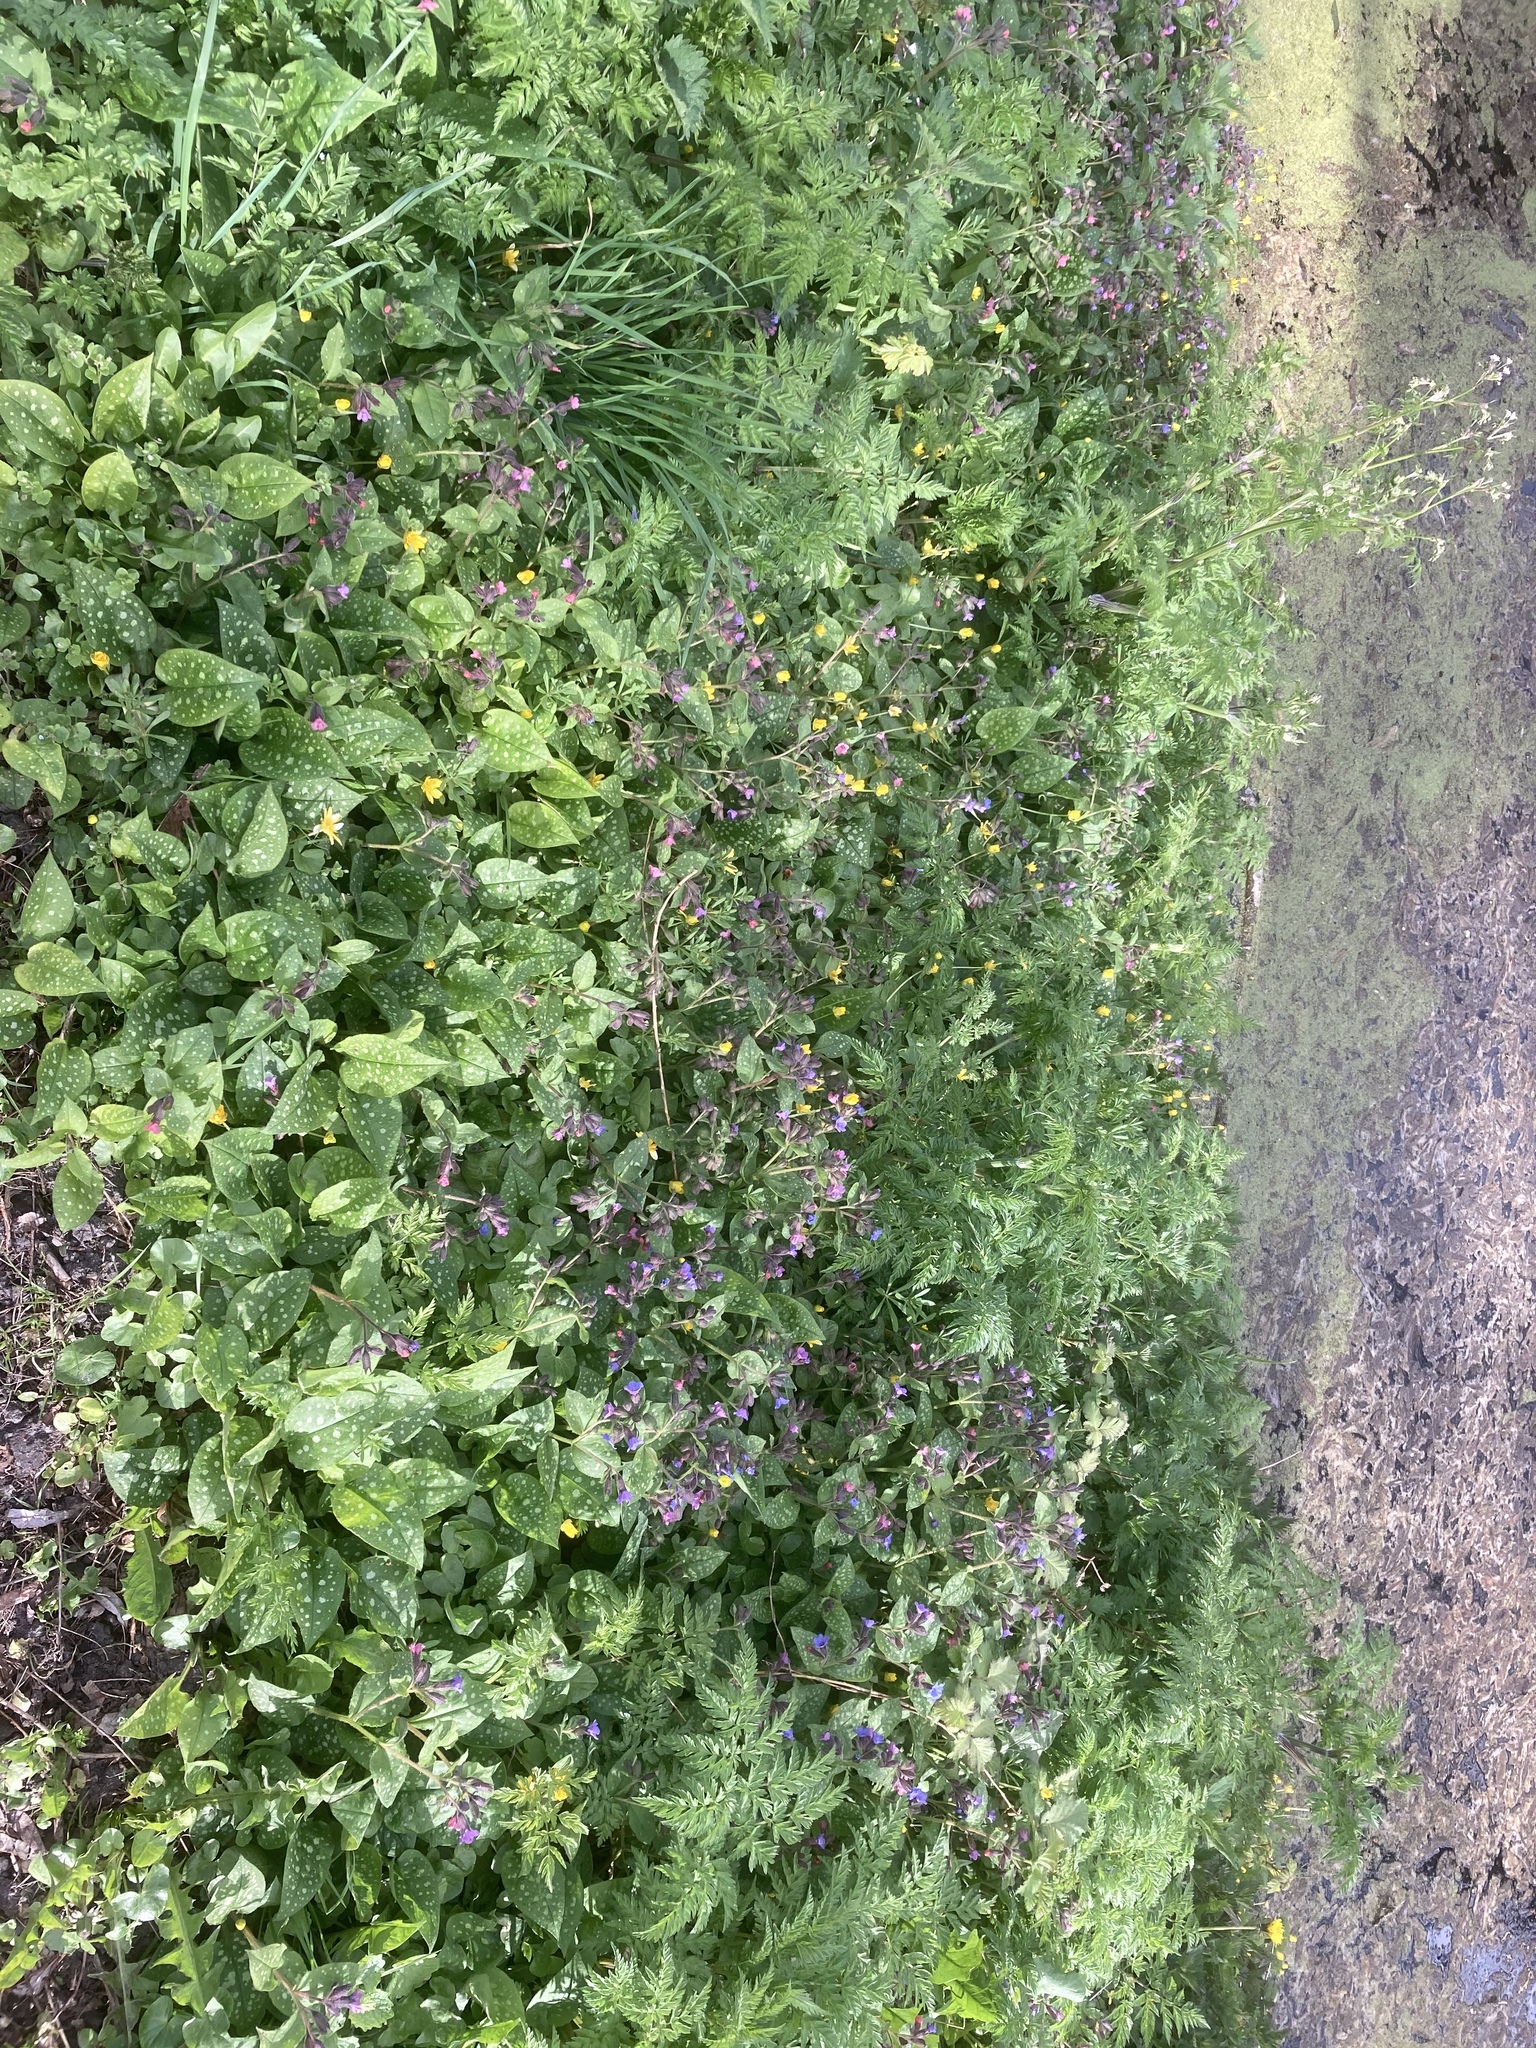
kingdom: Plantae
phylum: Tracheophyta
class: Magnoliopsida
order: Boraginales
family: Boraginaceae
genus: Pulmonaria
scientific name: Pulmonaria officinalis
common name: Lungwort
